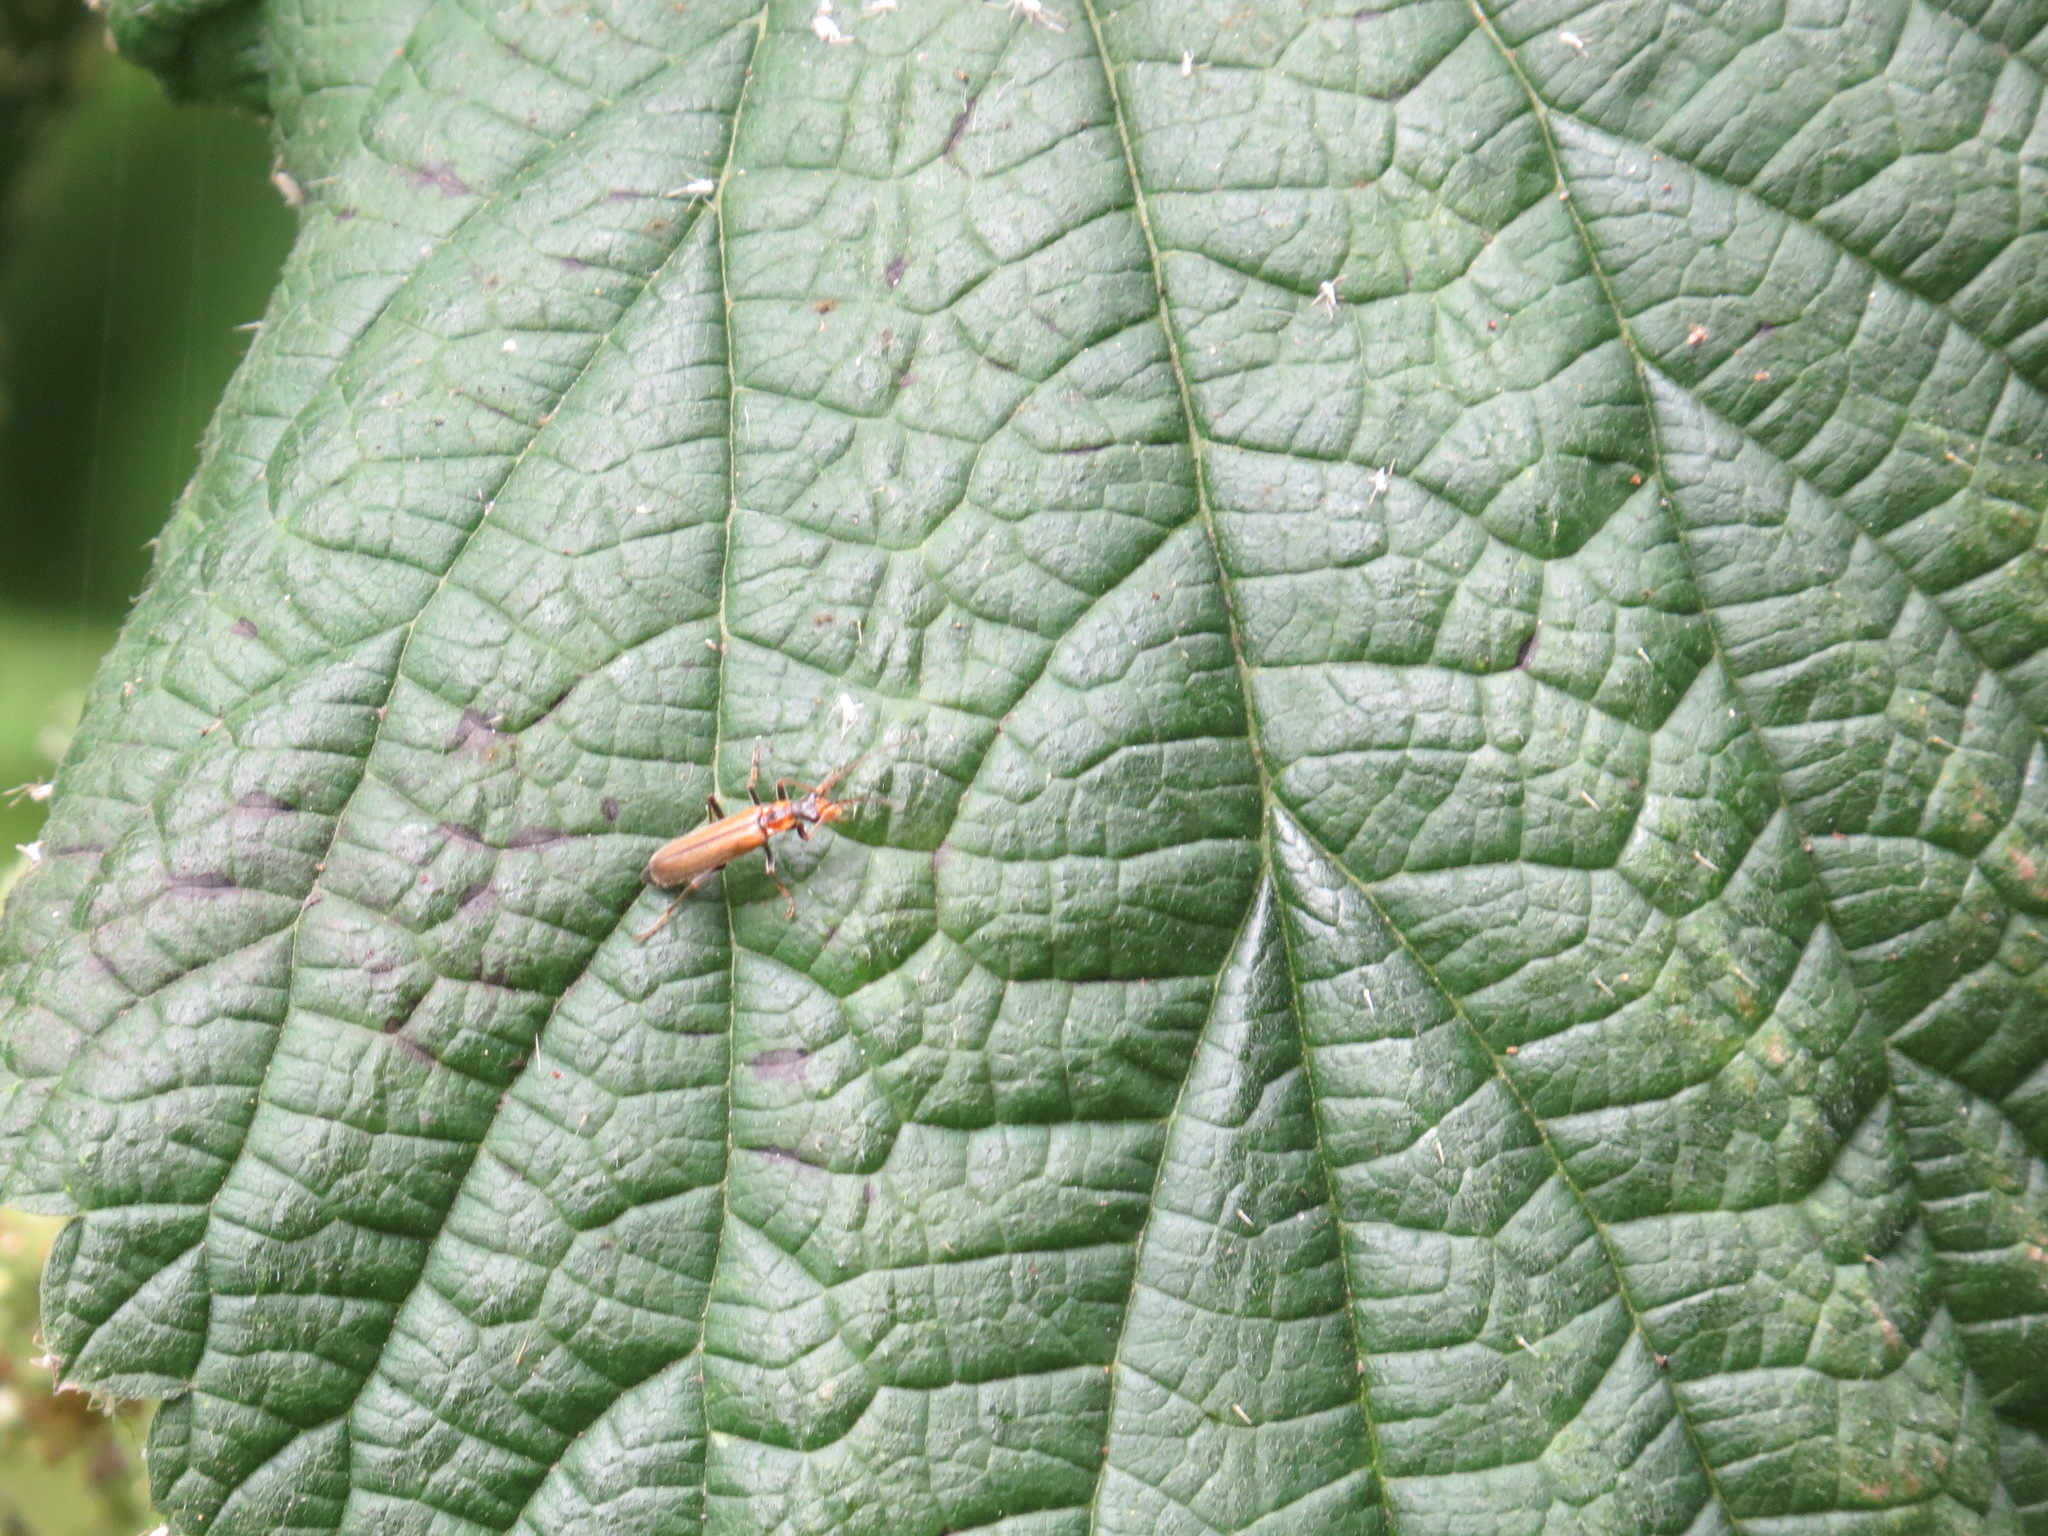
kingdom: Animalia
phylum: Arthropoda
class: Insecta
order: Coleoptera
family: Cantharidae
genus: Dichelotarsus
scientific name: Dichelotarsus cavicollis
